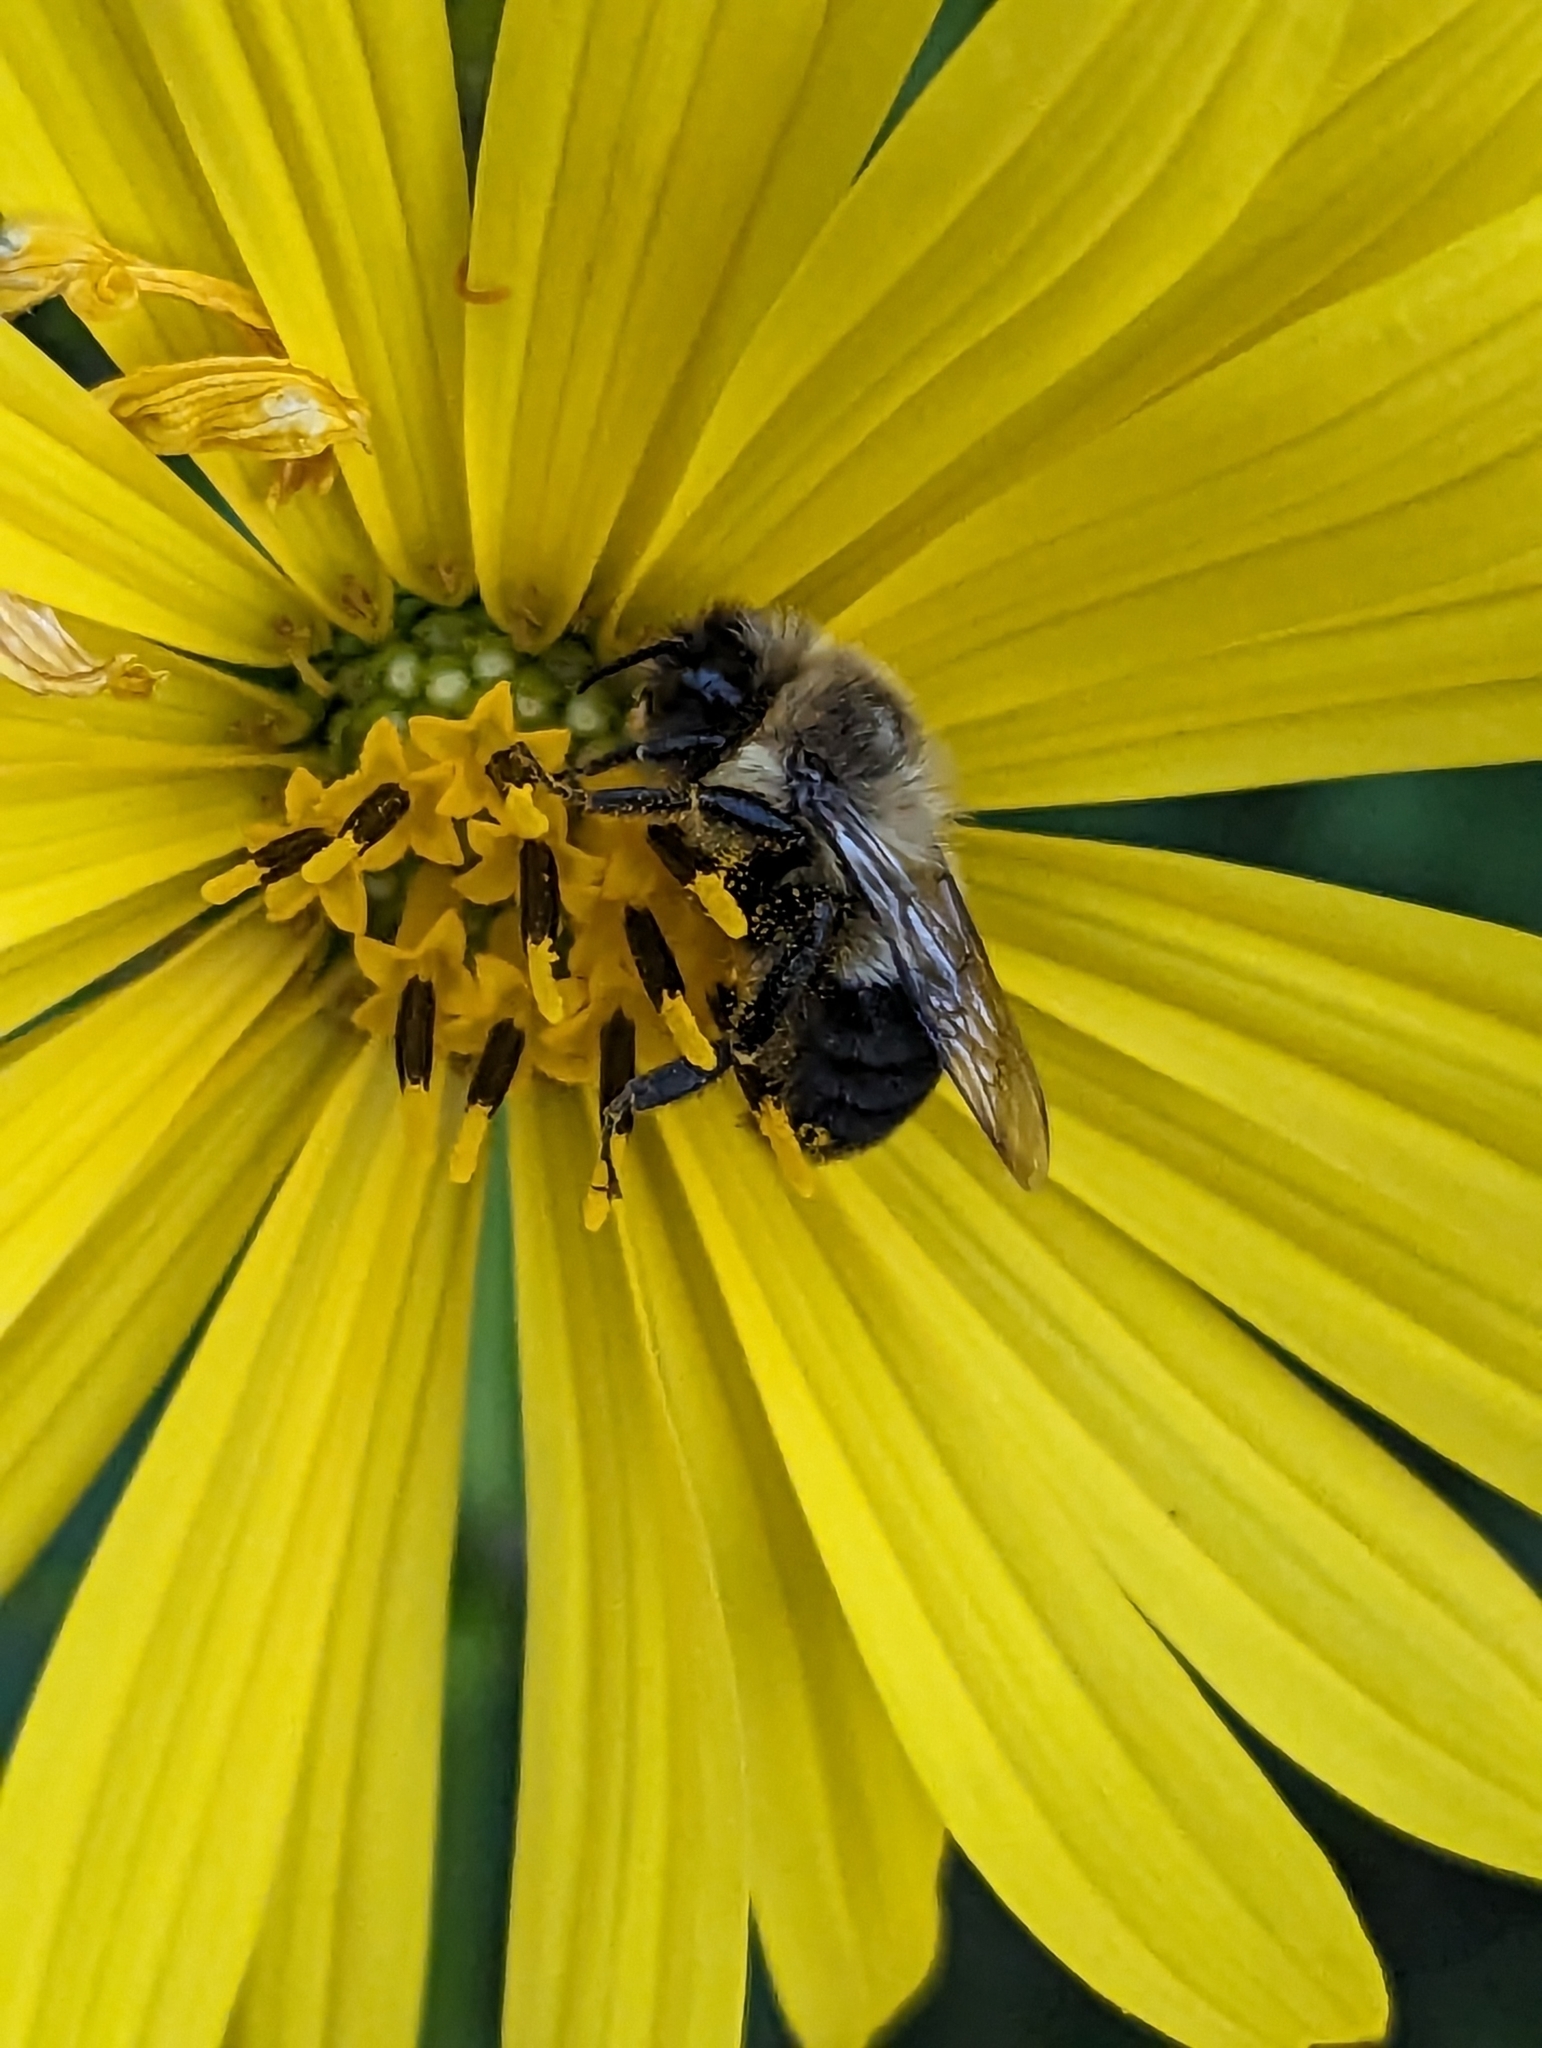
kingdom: Animalia
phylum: Arthropoda
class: Insecta
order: Hymenoptera
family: Apidae
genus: Bombus
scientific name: Bombus impatiens
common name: Common eastern bumble bee
